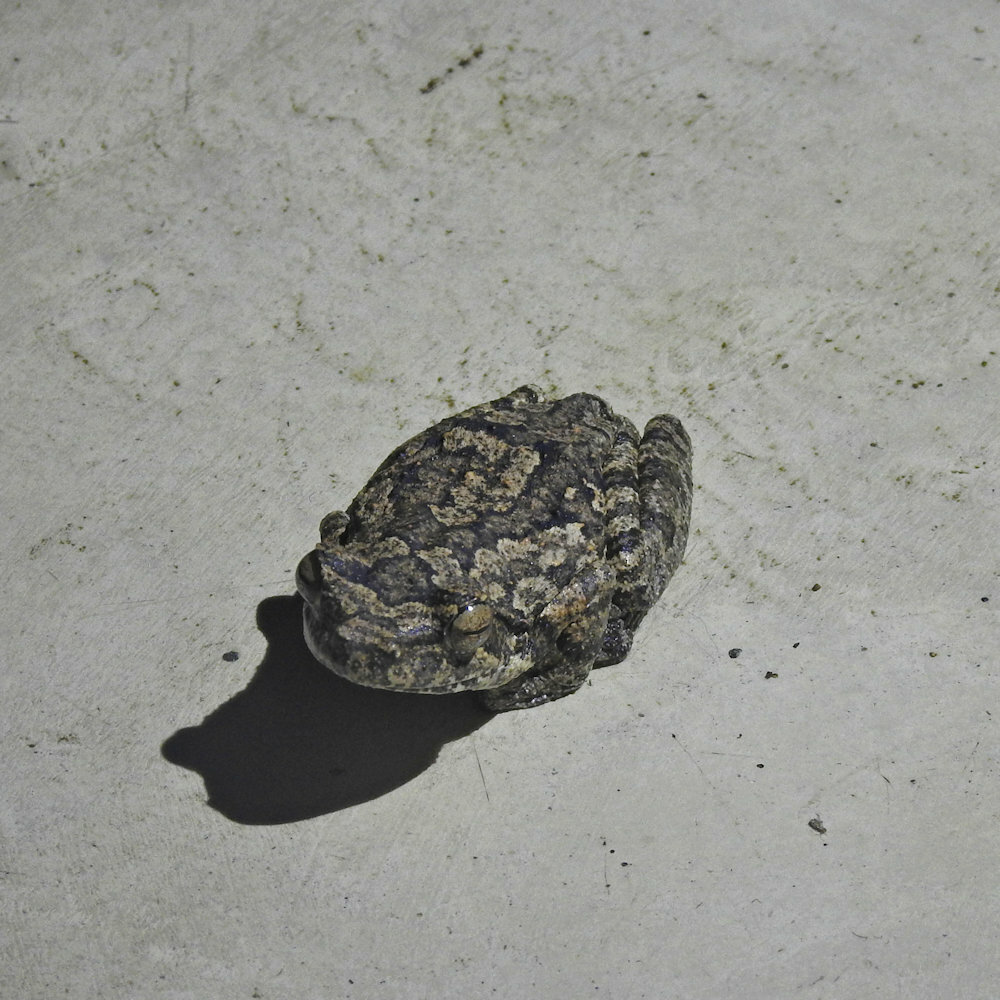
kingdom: Animalia
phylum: Chordata
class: Amphibia
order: Anura
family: Rhacophoridae
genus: Chiromantis
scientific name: Chiromantis xerampelina
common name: African gray treefrog
